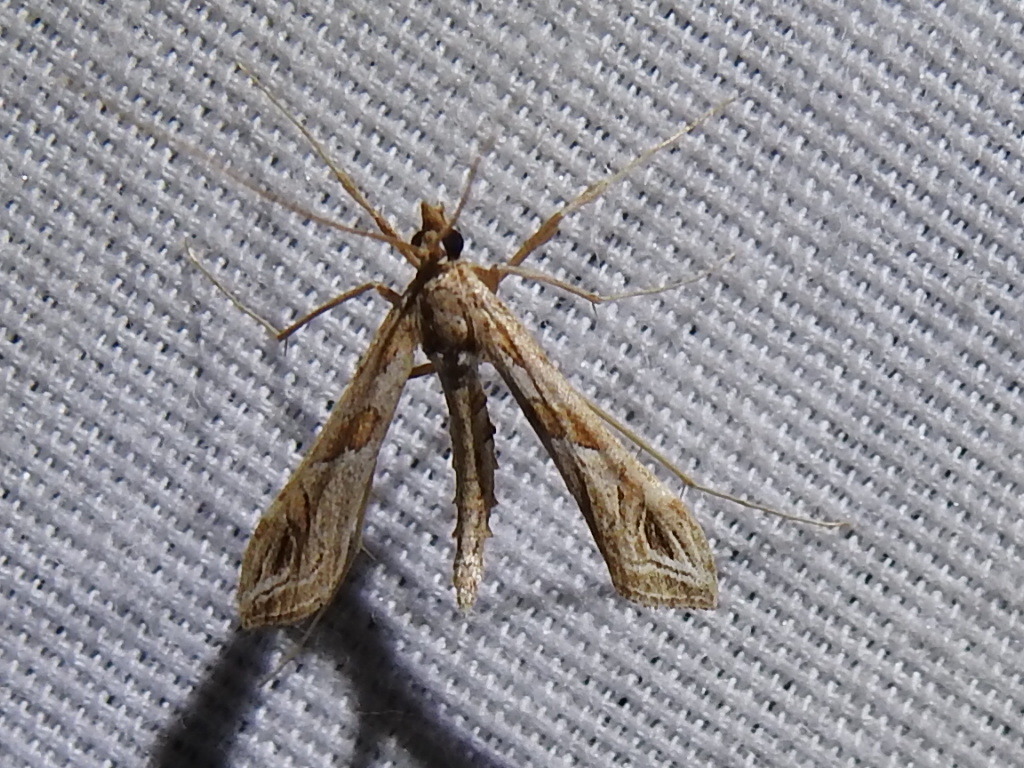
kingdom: Animalia
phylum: Arthropoda
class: Insecta
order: Lepidoptera
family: Crambidae
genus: Lineodes
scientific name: Lineodes interrupta
